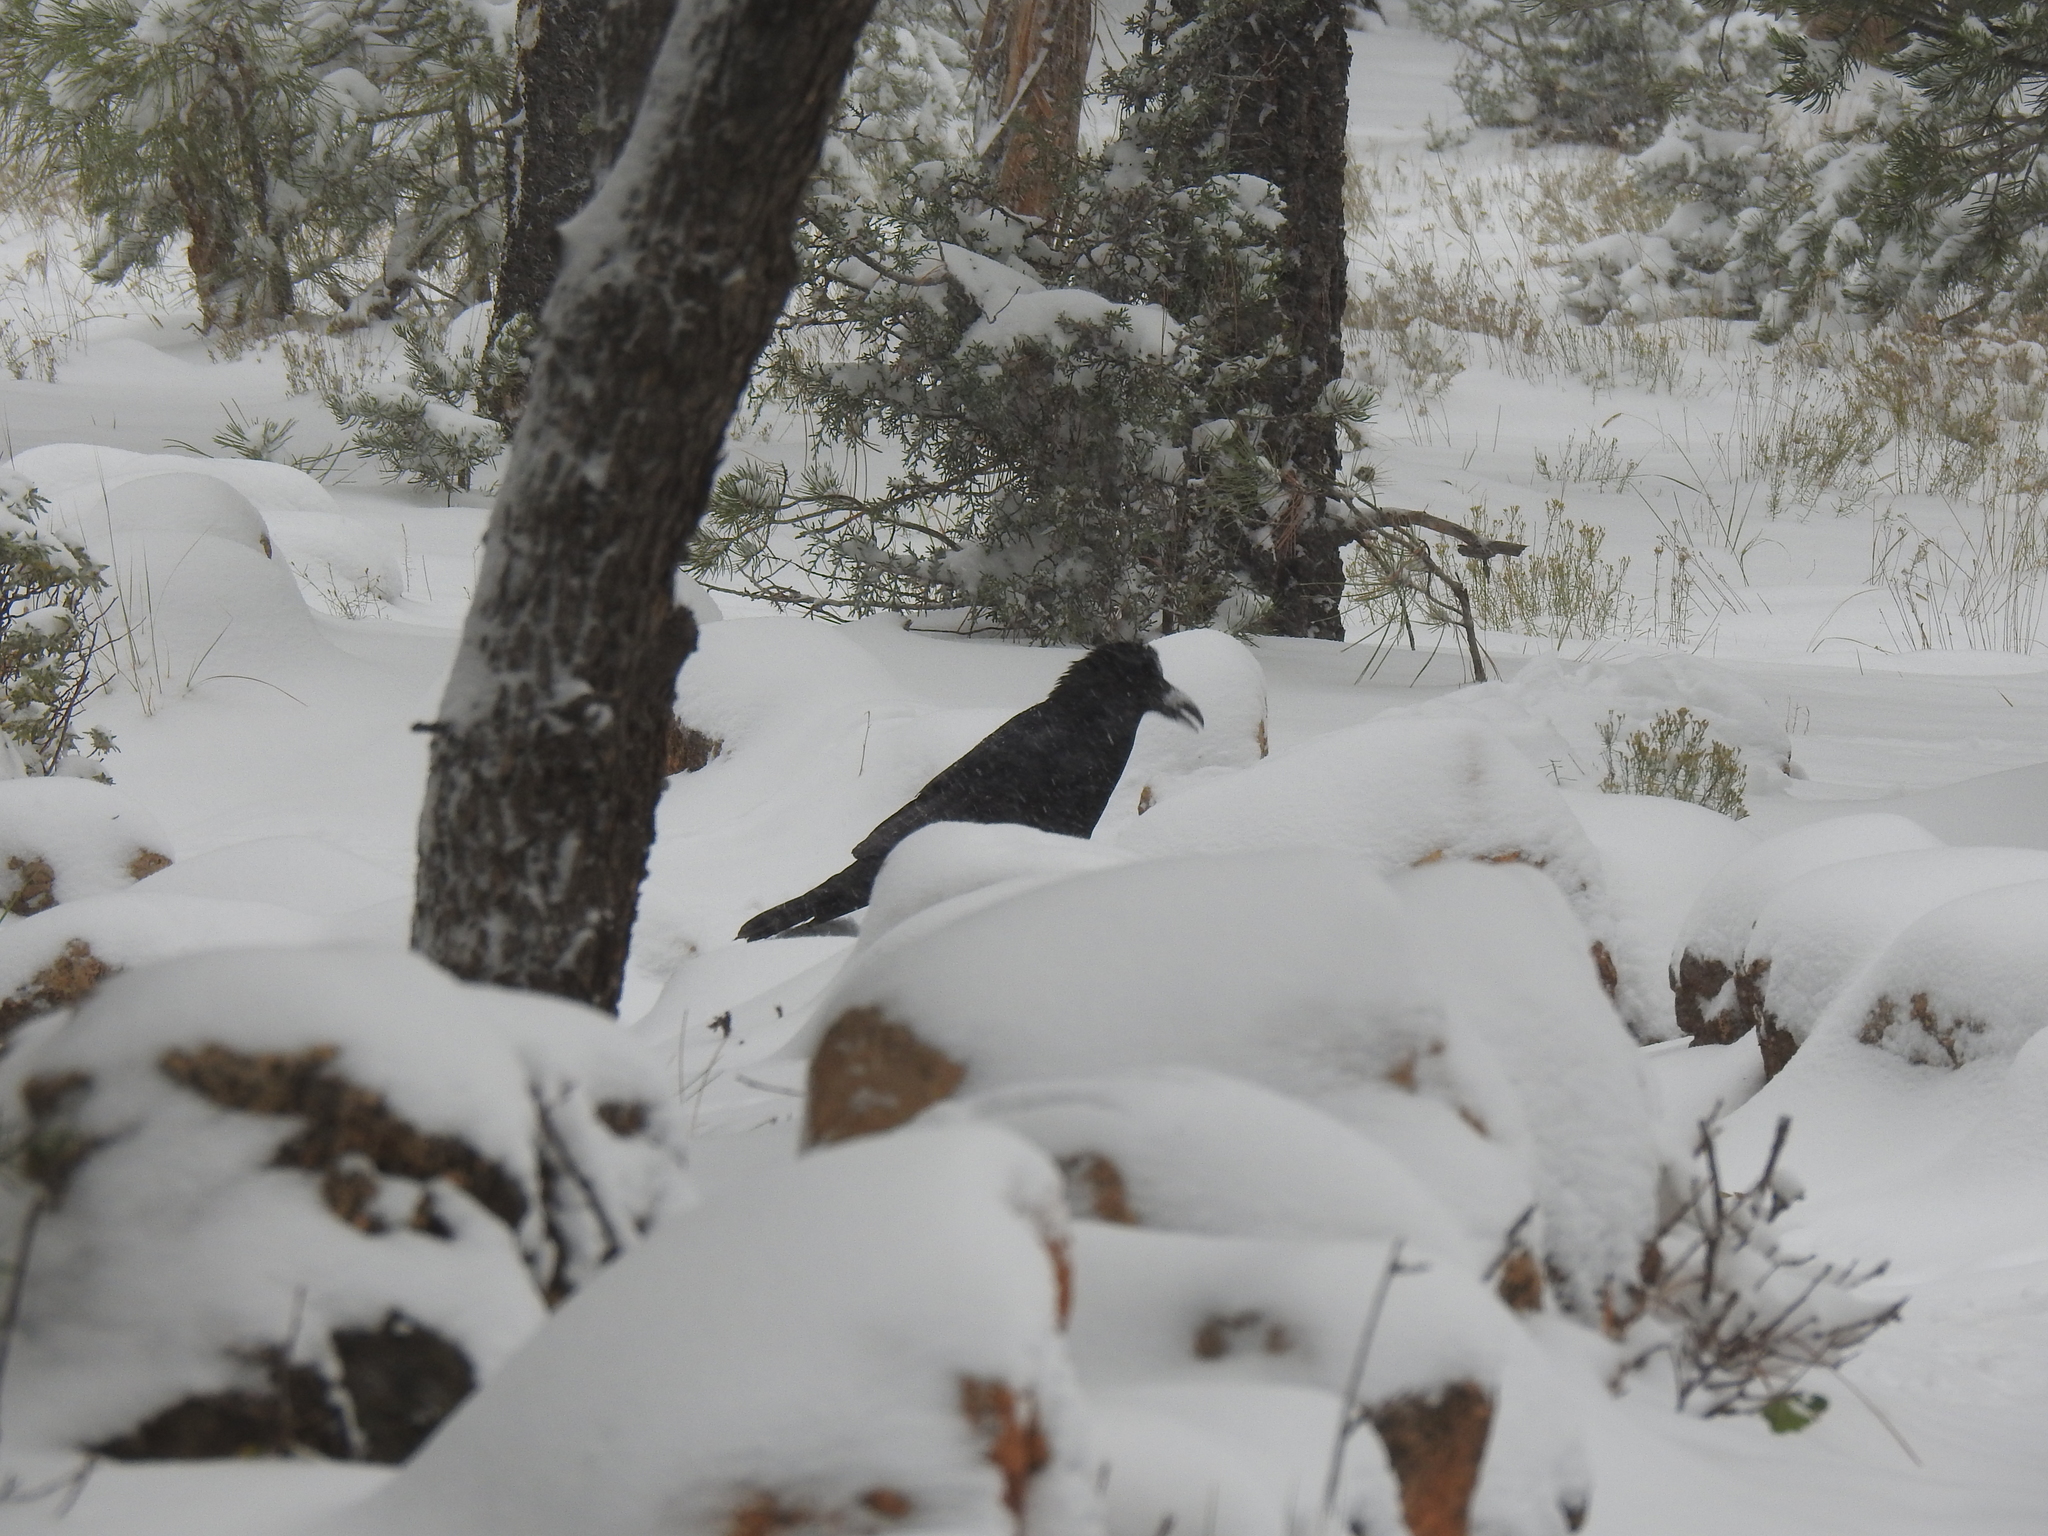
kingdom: Animalia
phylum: Chordata
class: Aves
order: Passeriformes
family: Corvidae
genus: Corvus
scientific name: Corvus corax
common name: Common raven
